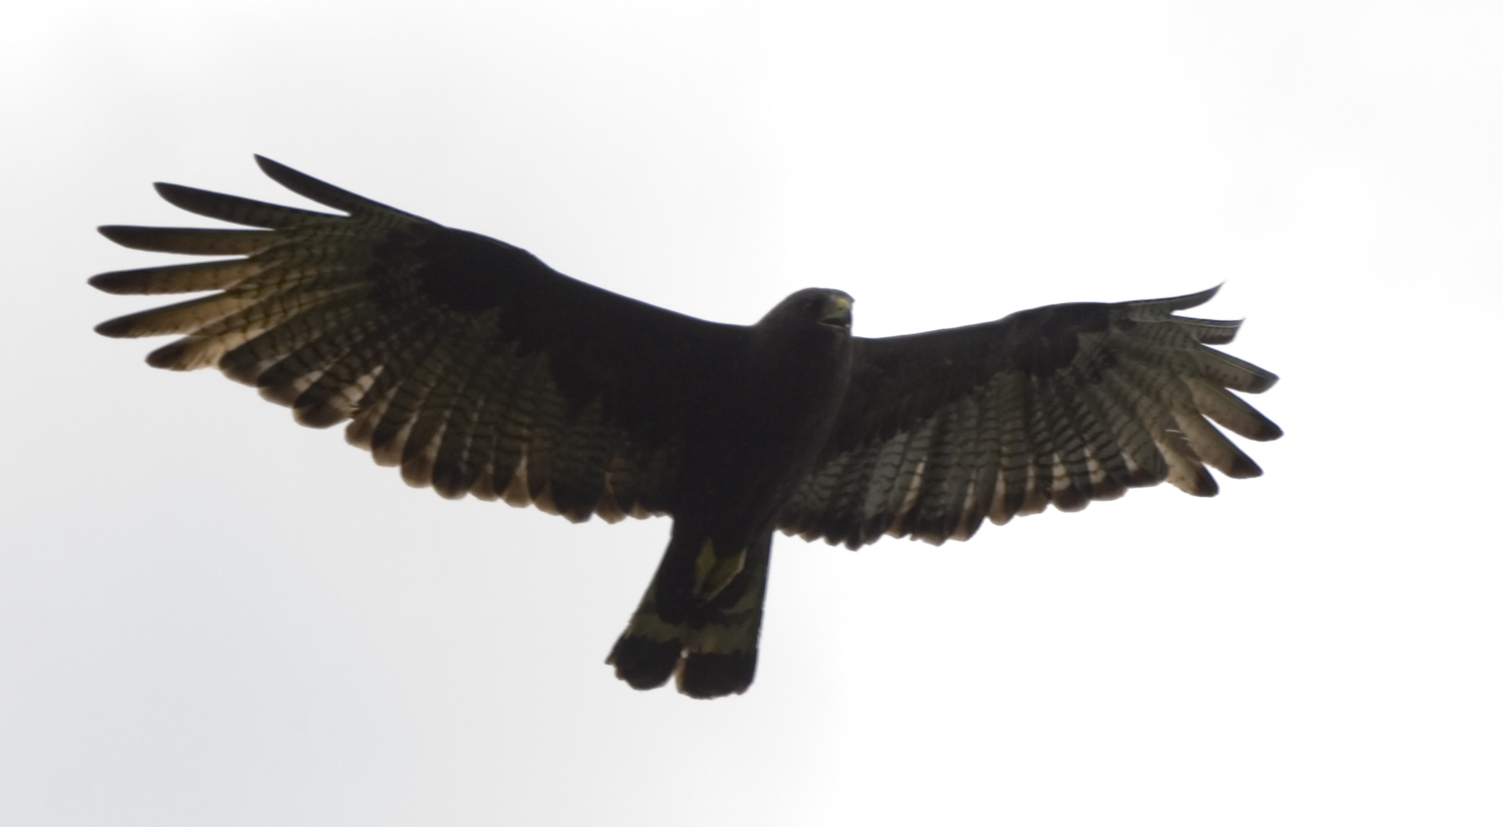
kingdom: Animalia
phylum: Chordata
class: Aves
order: Accipitriformes
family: Accipitridae
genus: Buteo
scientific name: Buteo albonotatus
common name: Zone-tailed hawk
